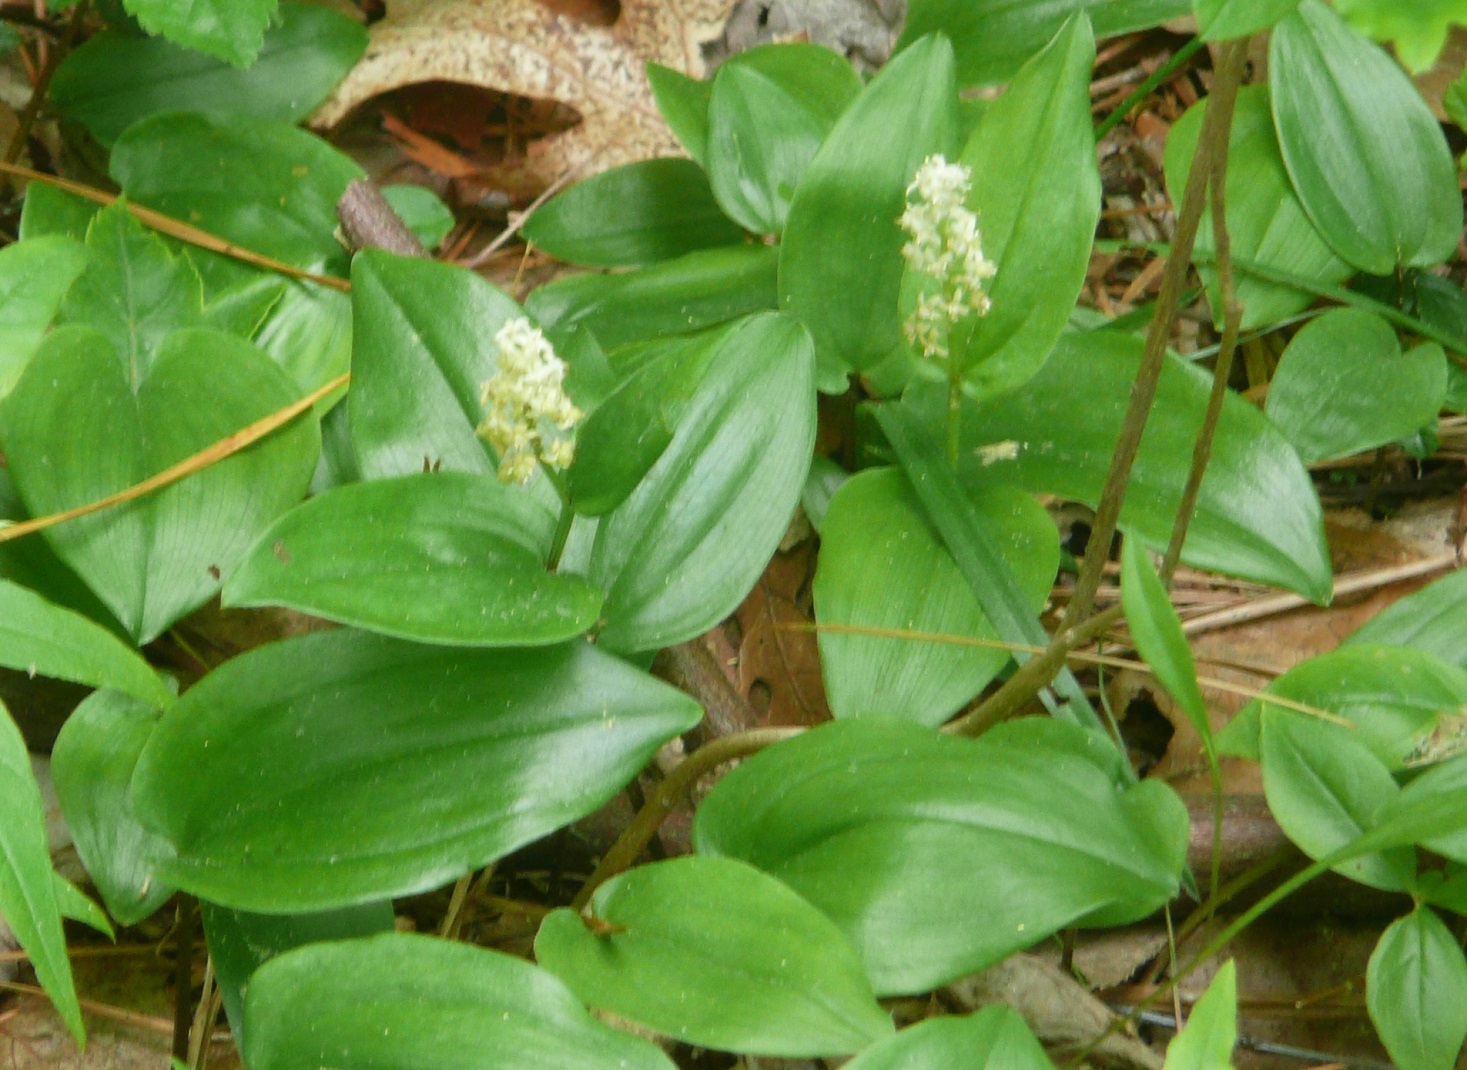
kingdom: Plantae
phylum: Tracheophyta
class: Liliopsida
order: Asparagales
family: Asparagaceae
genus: Maianthemum
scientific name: Maianthemum canadense
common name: False lily-of-the-valley
